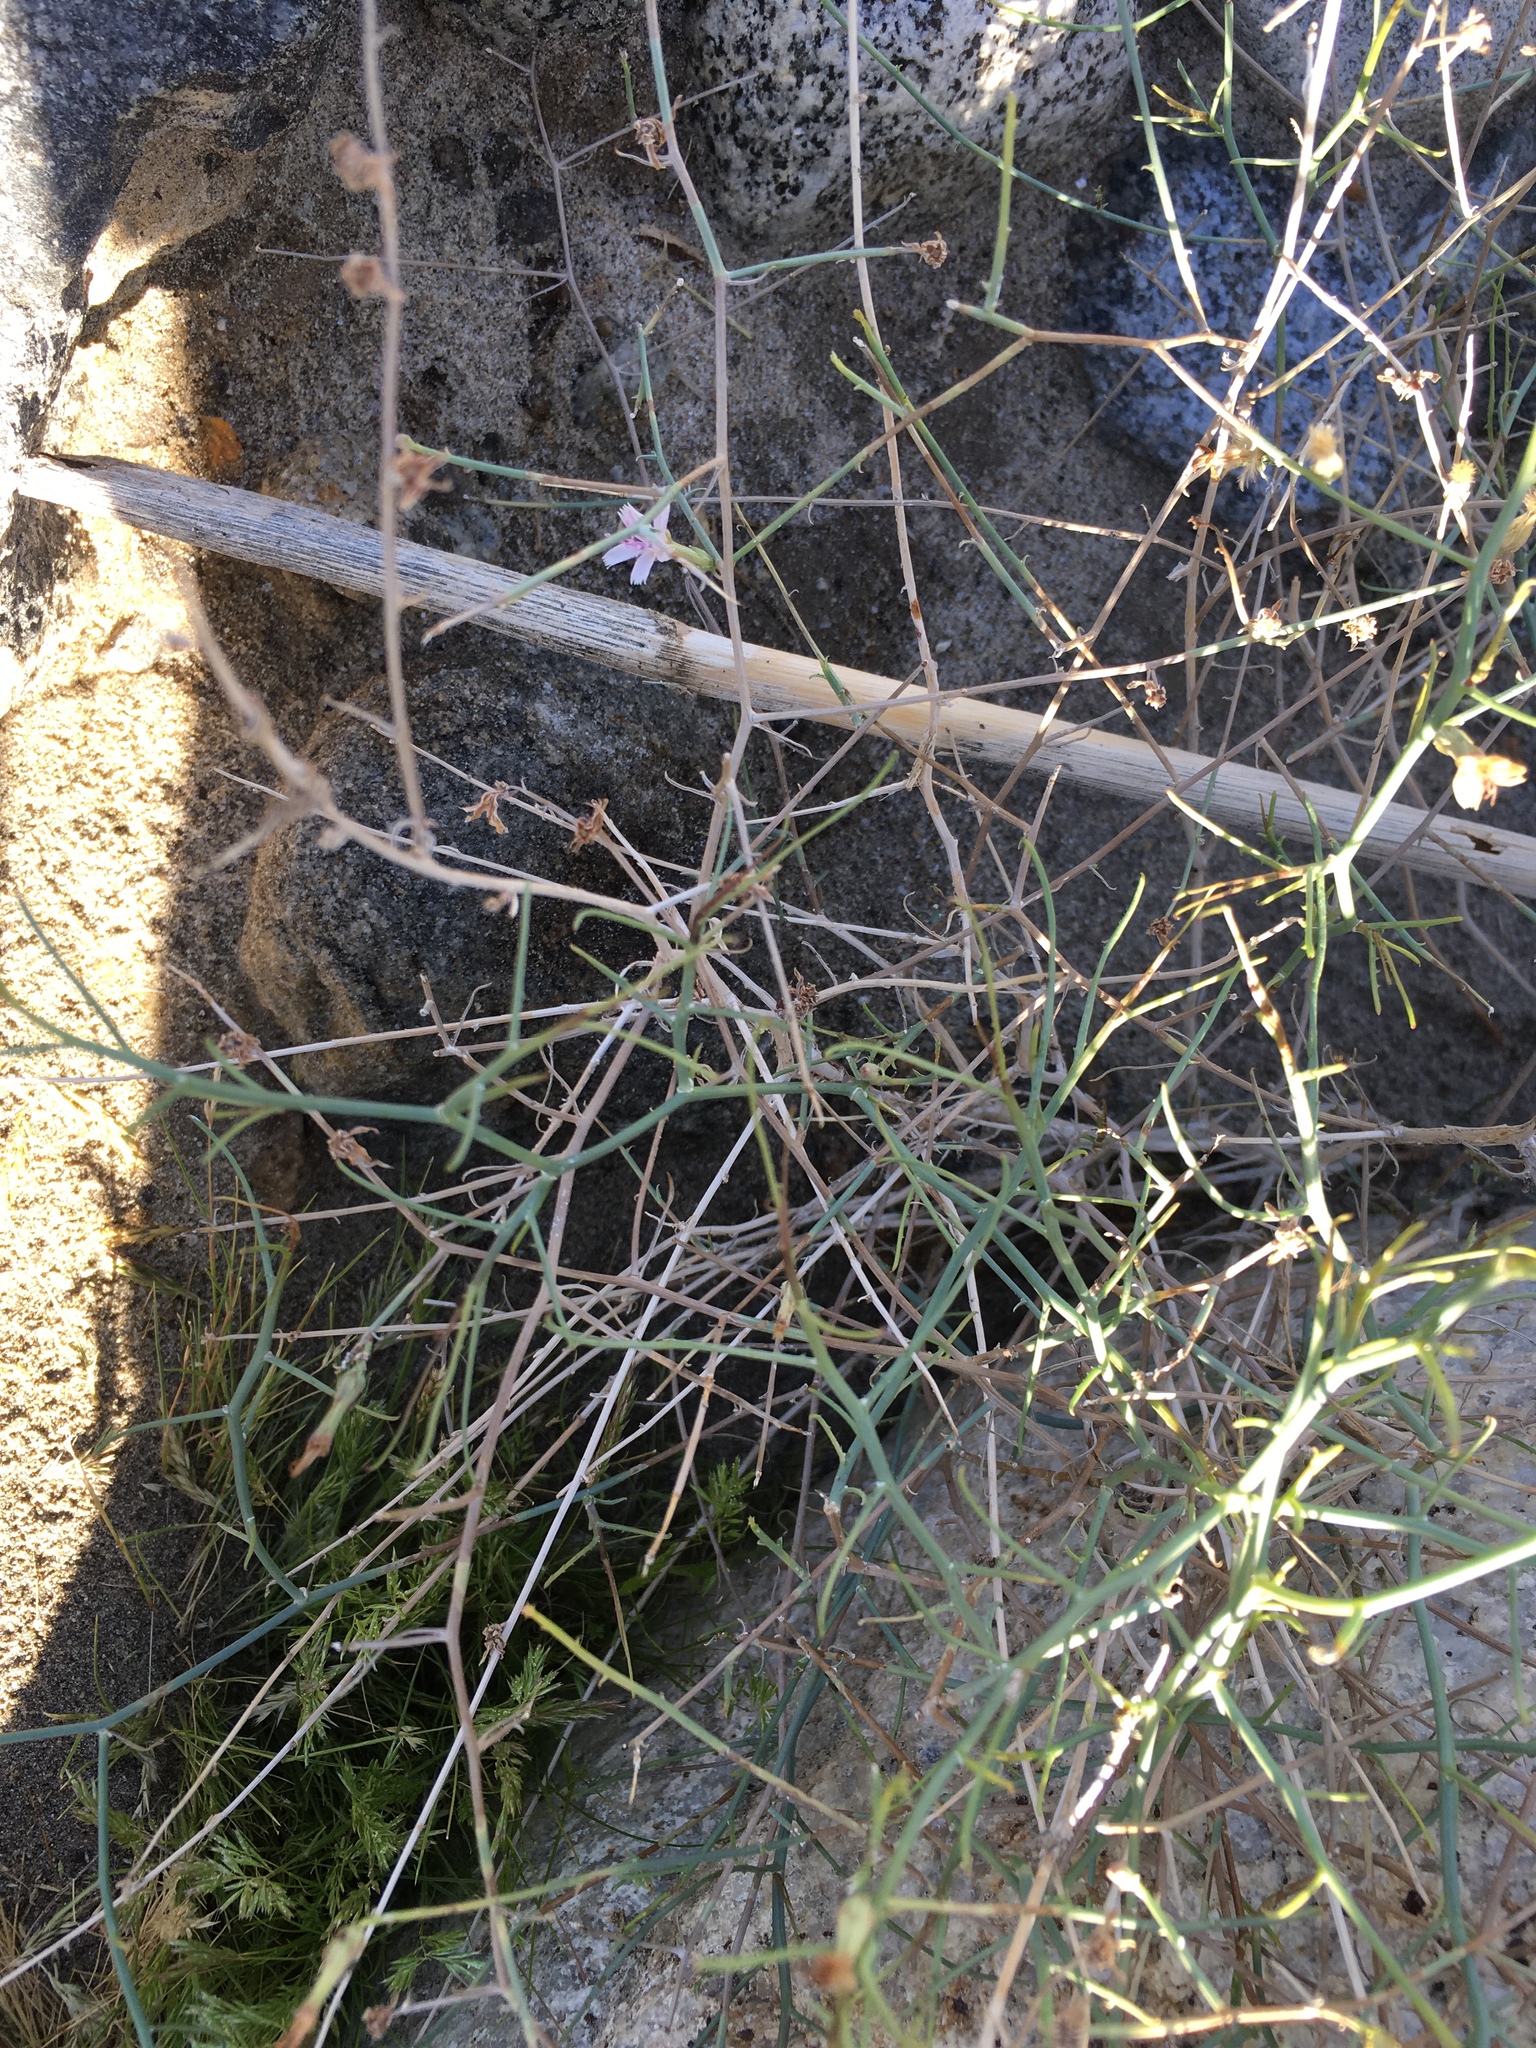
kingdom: Plantae
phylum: Tracheophyta
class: Magnoliopsida
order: Asterales
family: Asteraceae
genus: Stephanomeria
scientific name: Stephanomeria pauciflora
